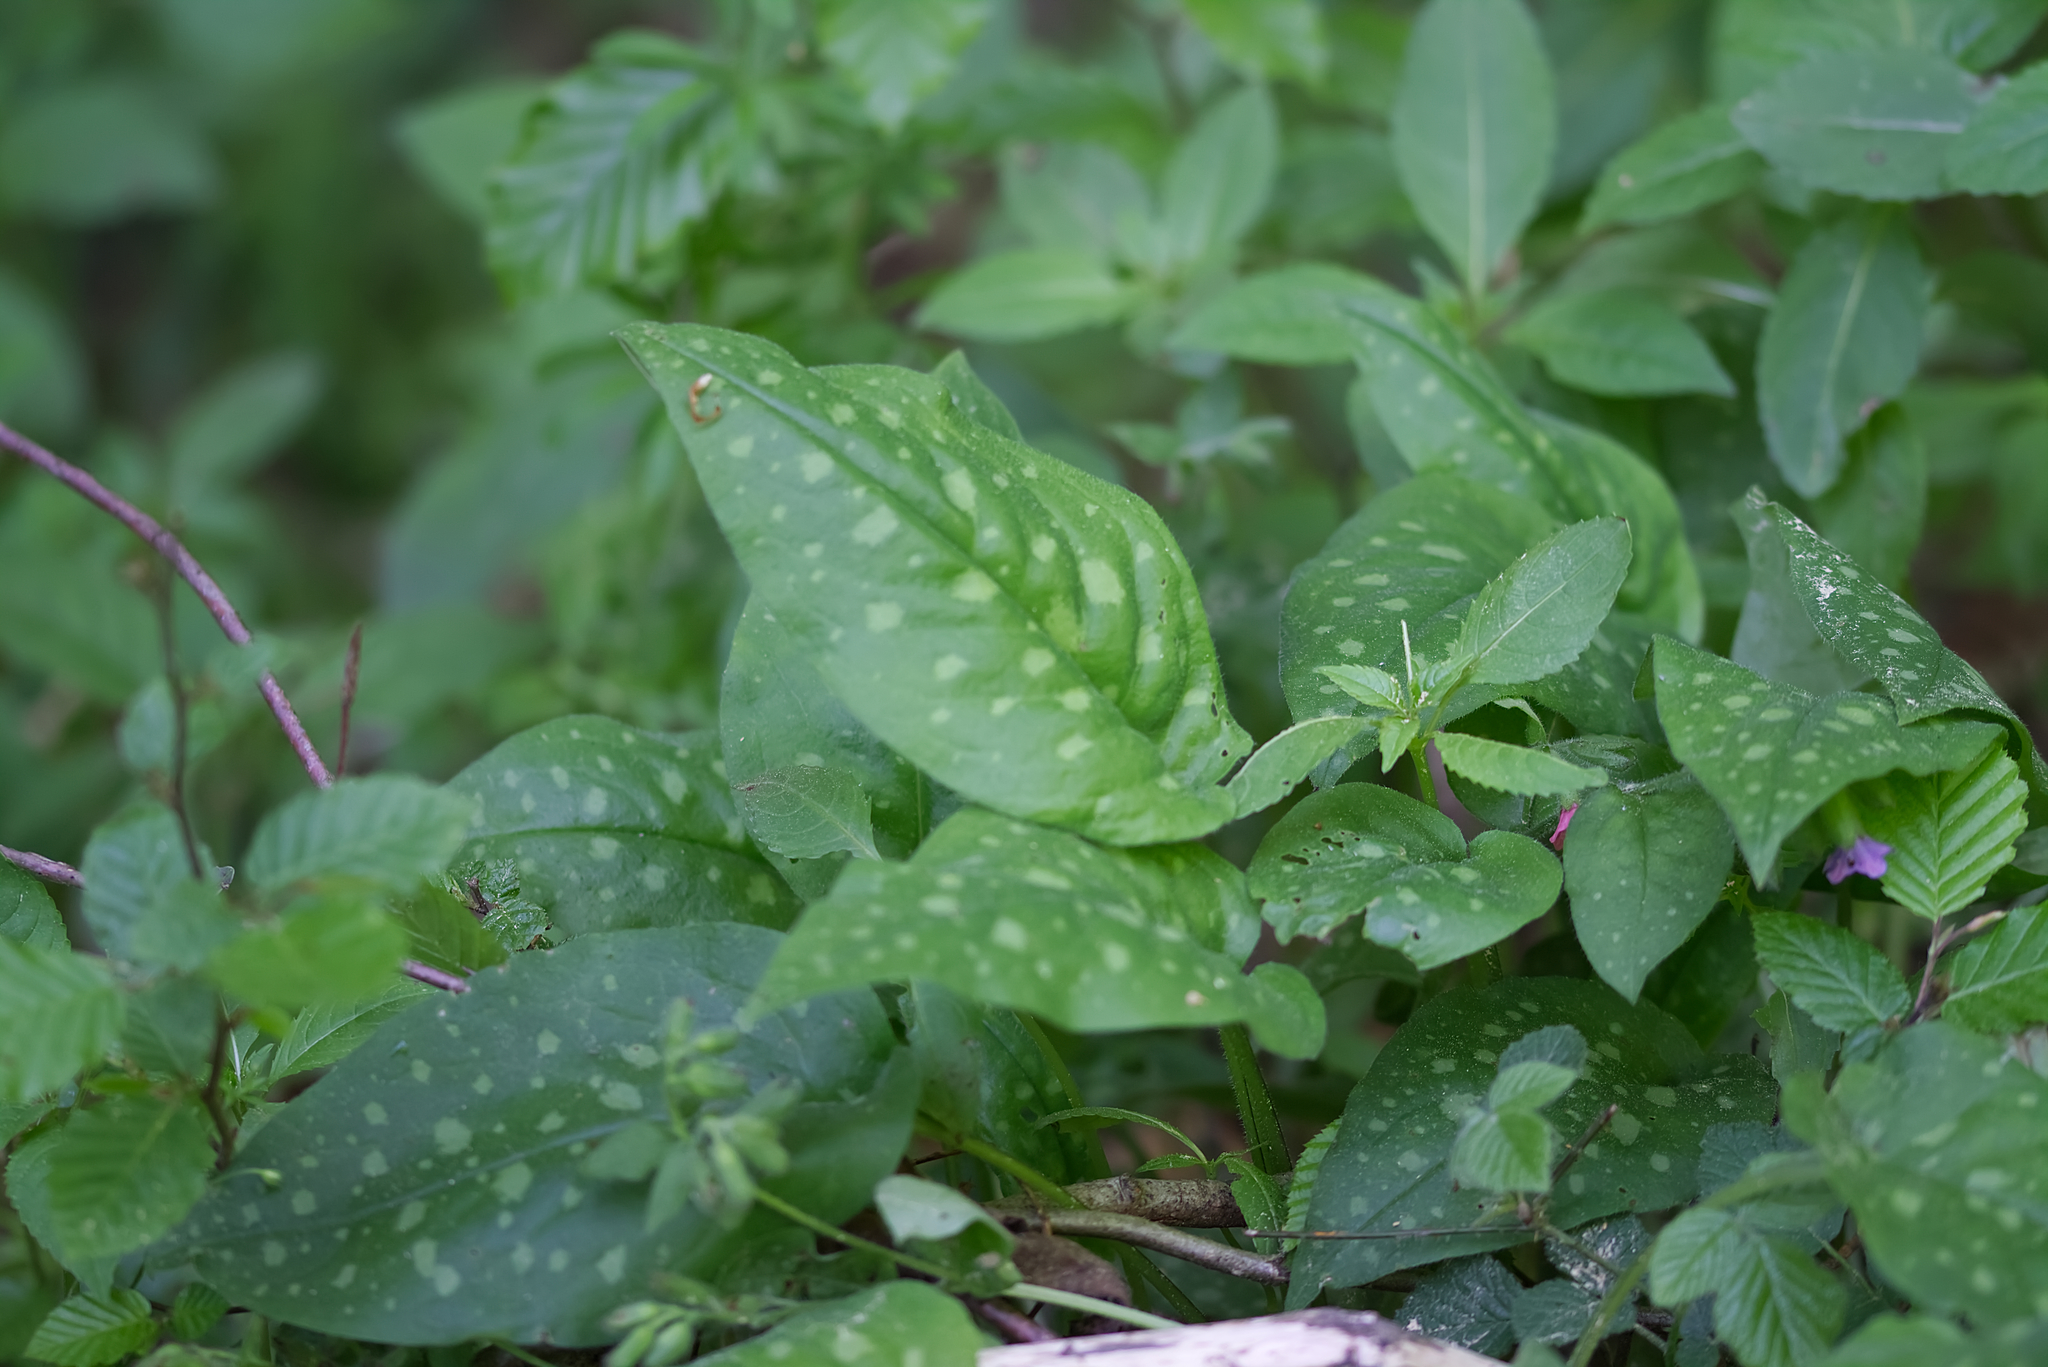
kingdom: Plantae
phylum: Tracheophyta
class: Magnoliopsida
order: Boraginales
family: Boraginaceae
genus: Pulmonaria
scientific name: Pulmonaria officinalis
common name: Lungwort
